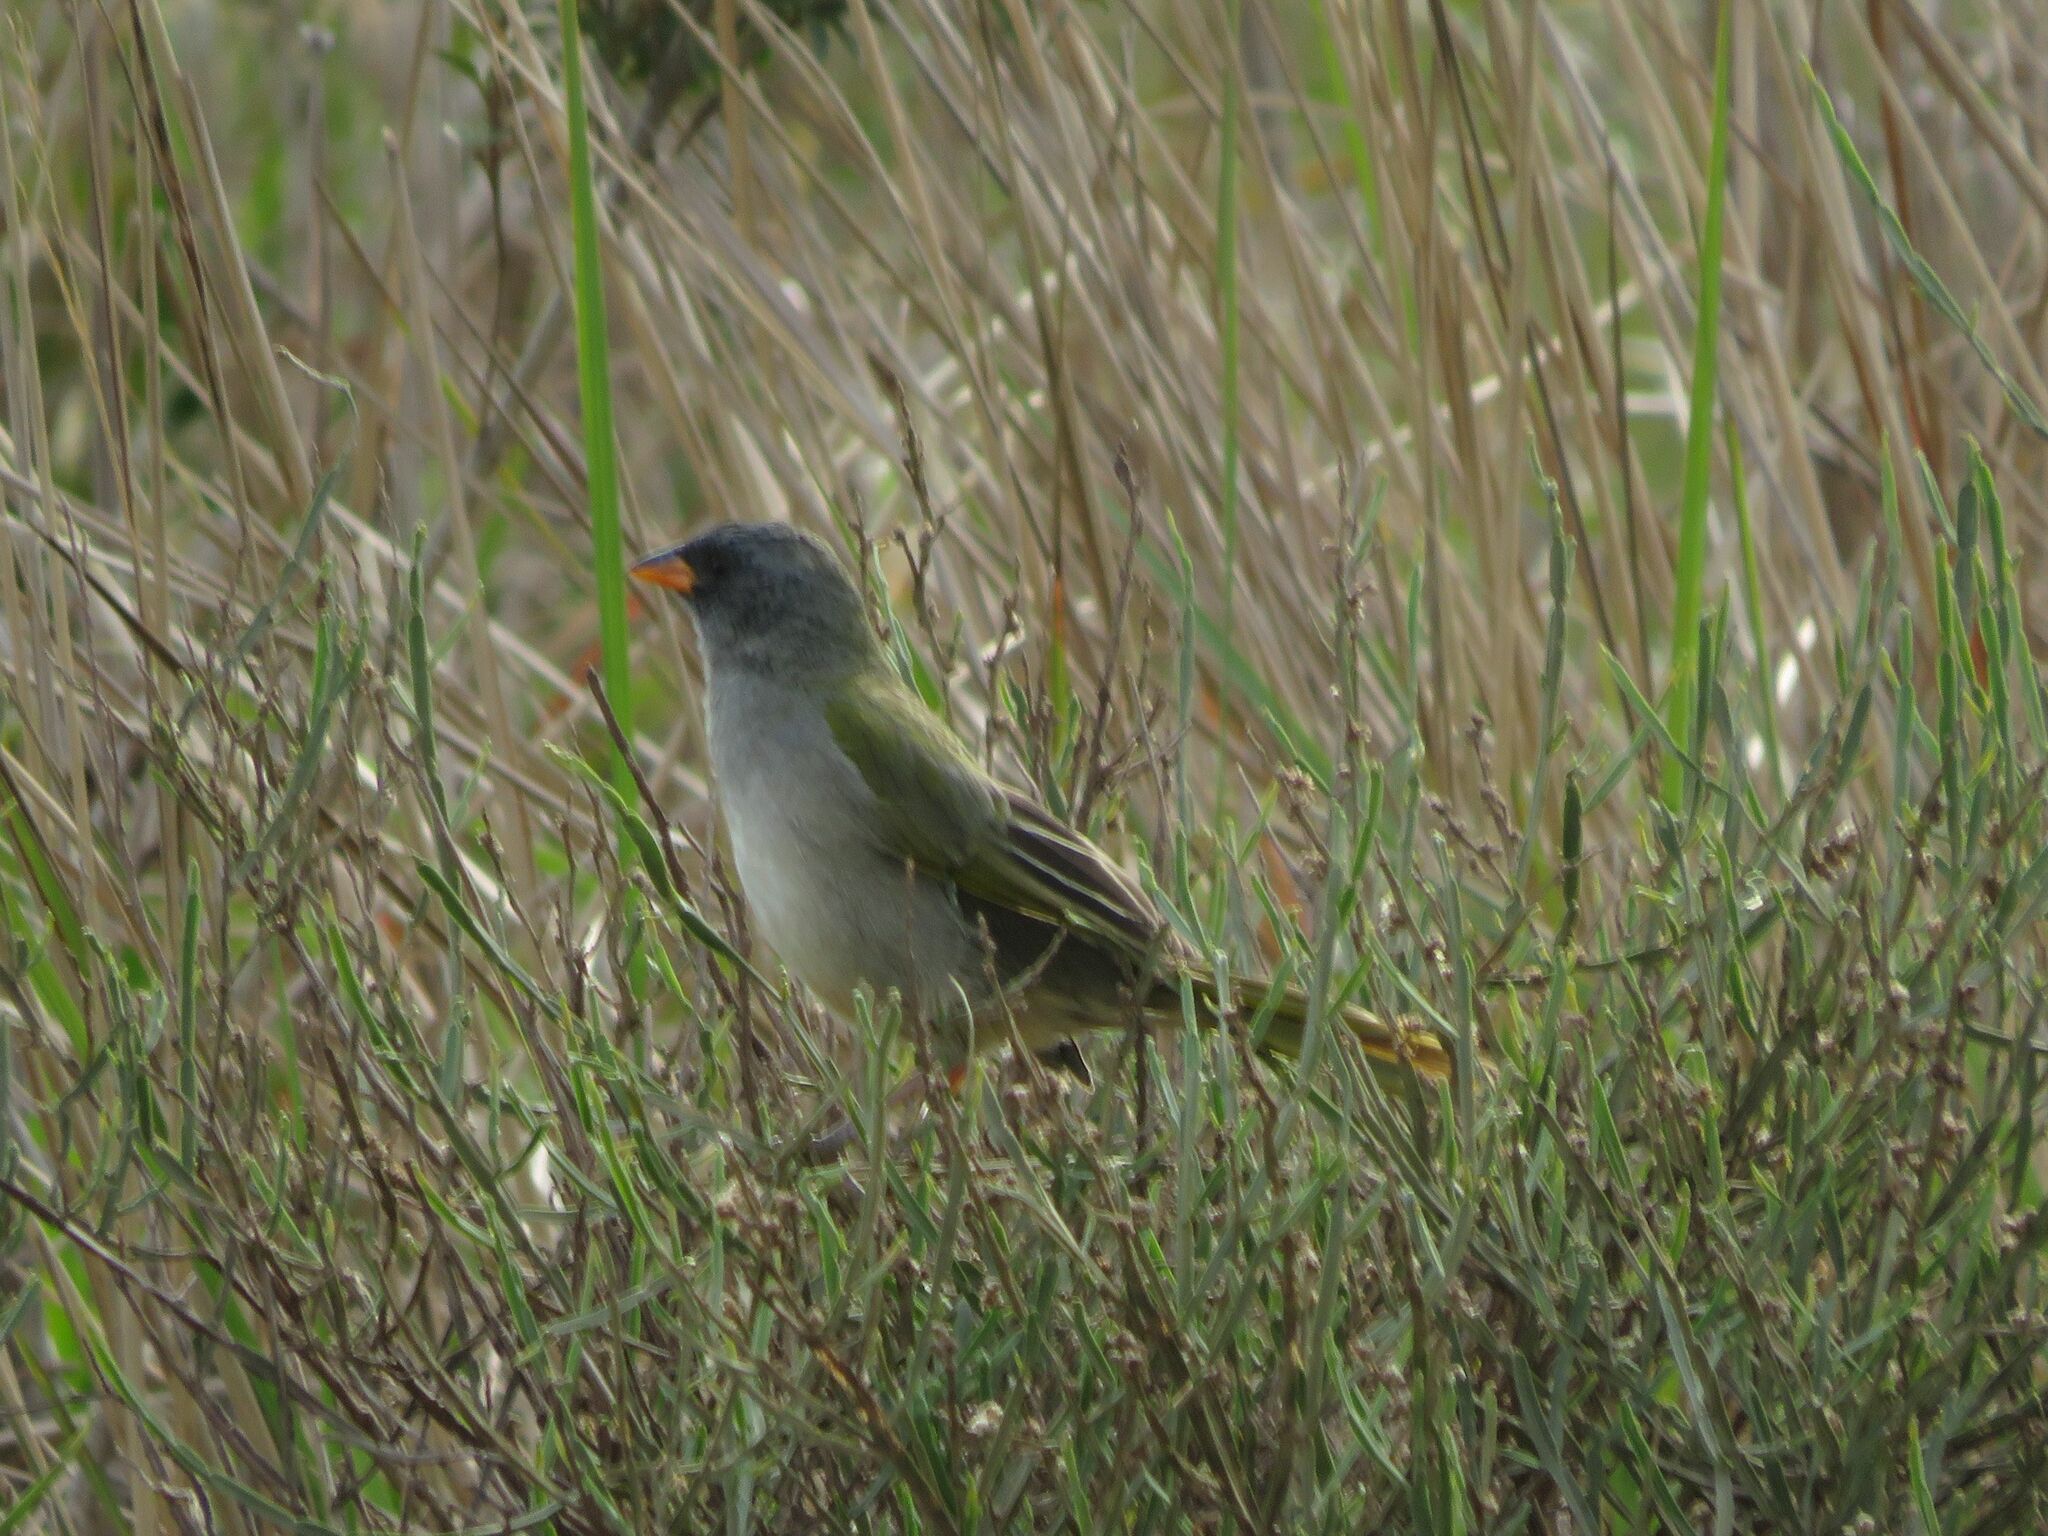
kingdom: Animalia
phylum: Chordata
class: Aves
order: Passeriformes
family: Thraupidae
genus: Embernagra
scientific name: Embernagra platensis
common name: Pampa finch
